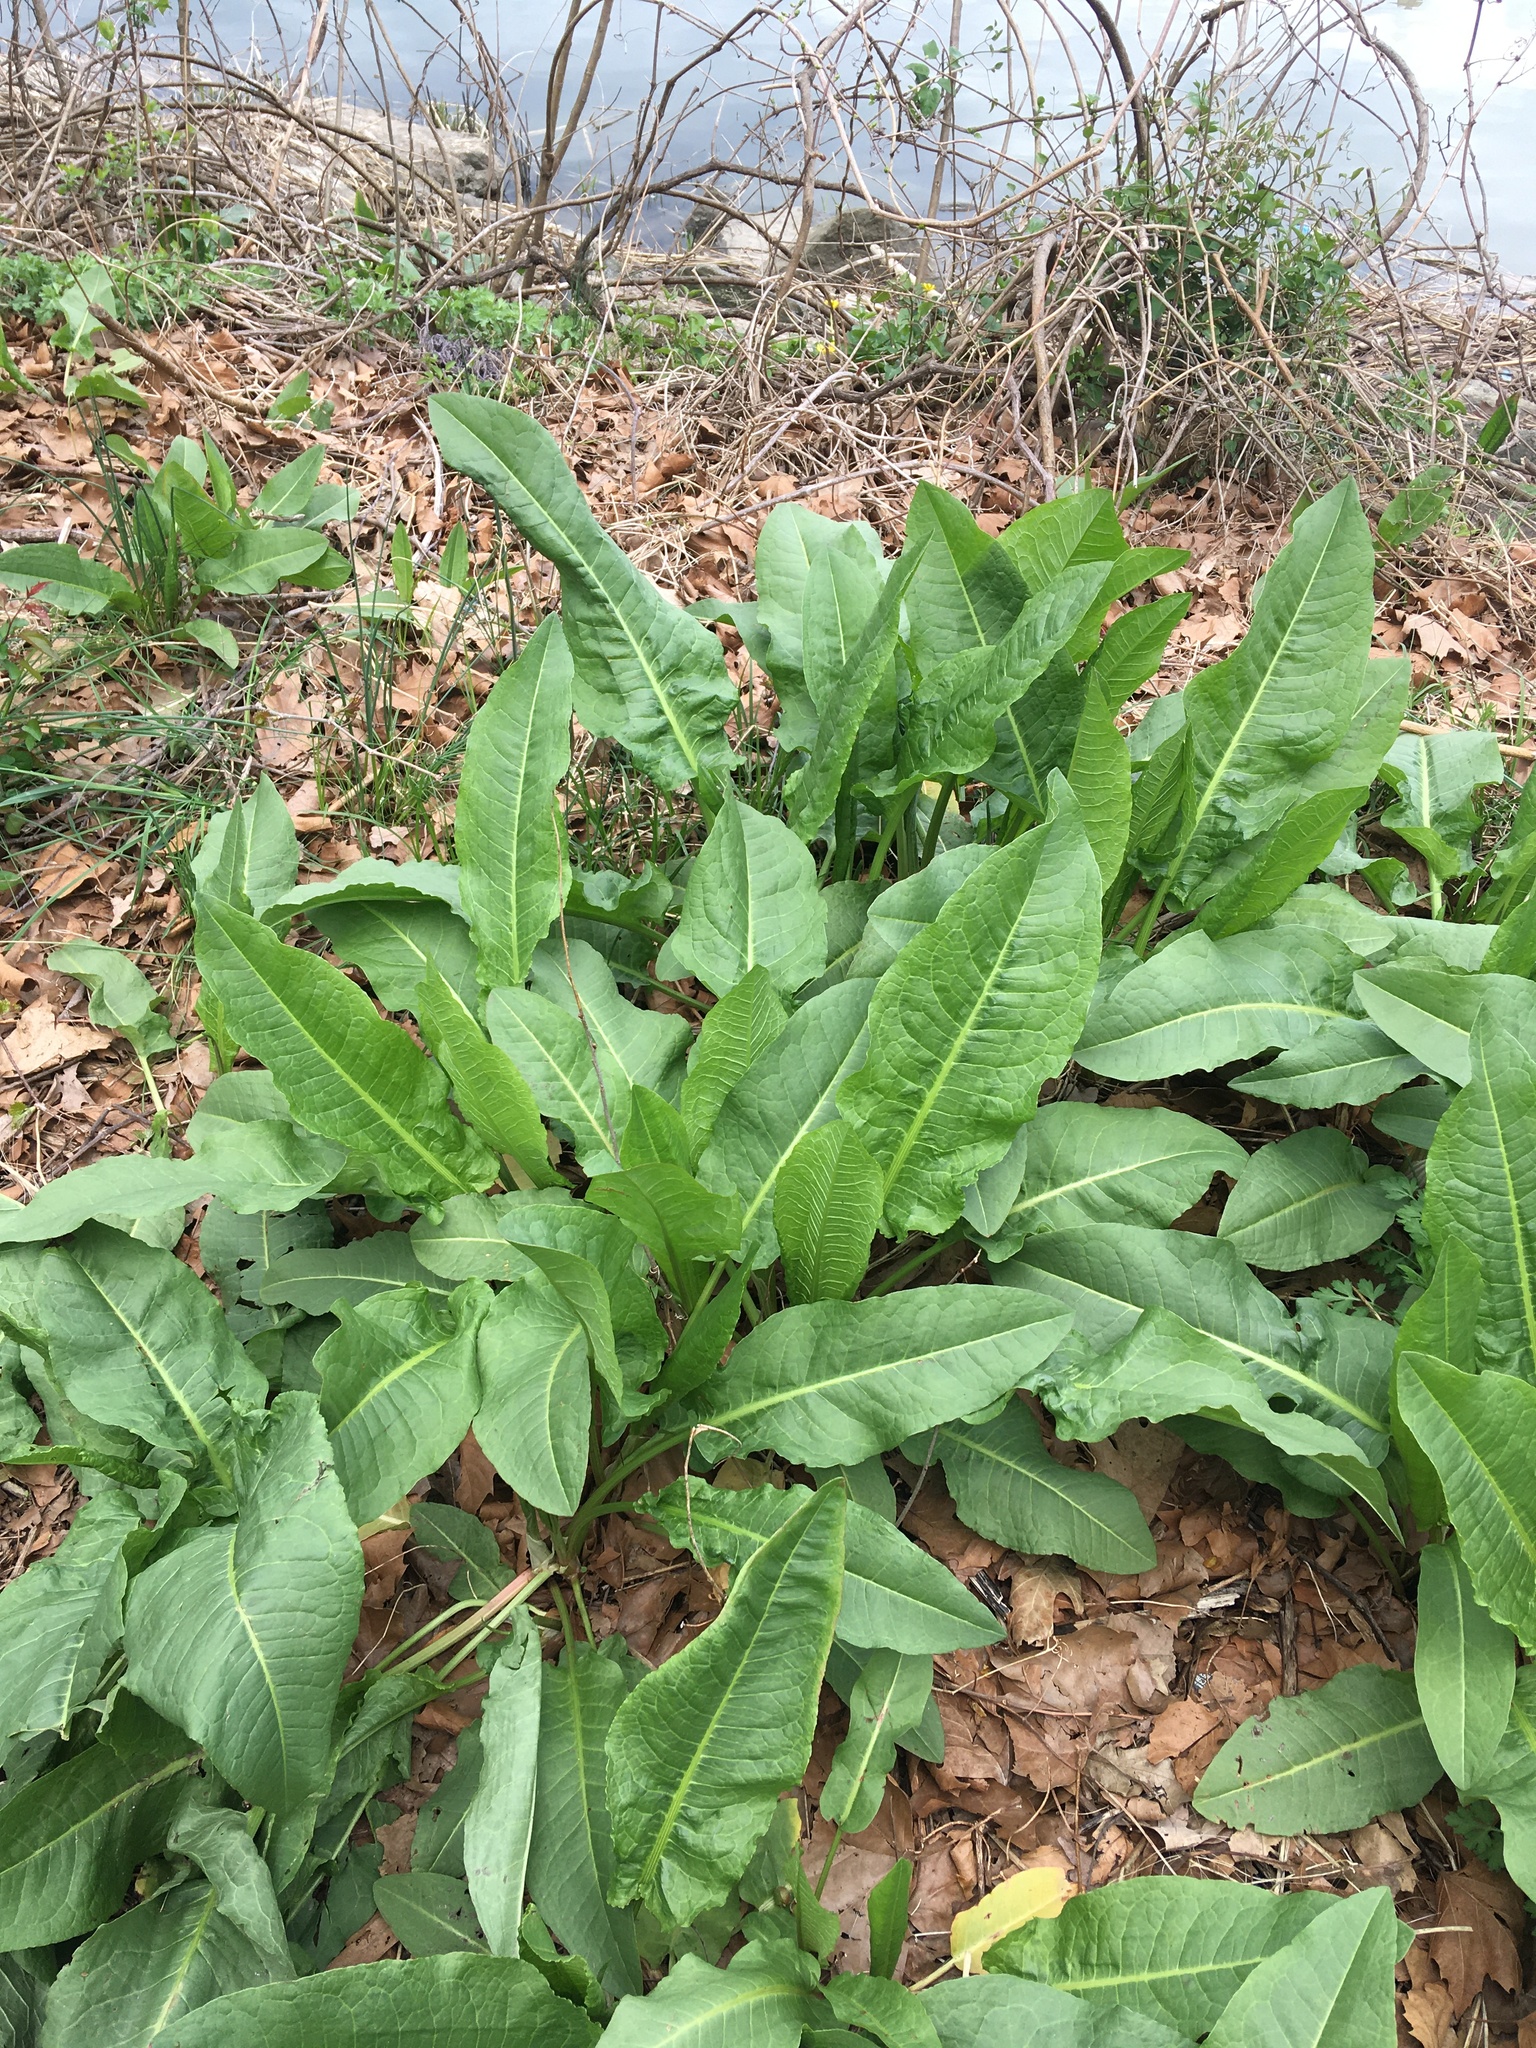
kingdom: Plantae
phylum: Tracheophyta
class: Magnoliopsida
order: Caryophyllales
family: Polygonaceae
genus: Rumex
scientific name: Rumex cristatus
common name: Greek dock
